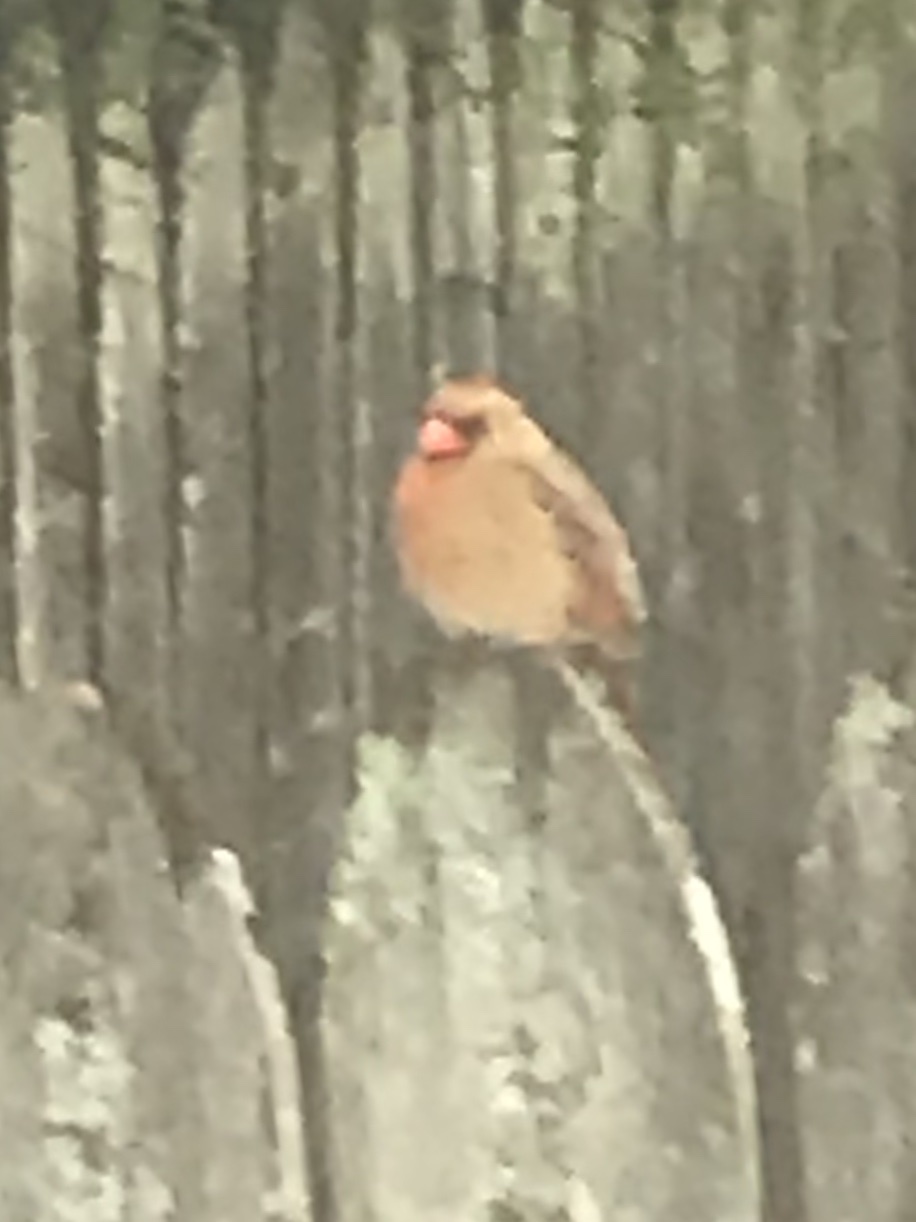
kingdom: Animalia
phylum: Chordata
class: Aves
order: Passeriformes
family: Cardinalidae
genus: Cardinalis
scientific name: Cardinalis cardinalis
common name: Northern cardinal
